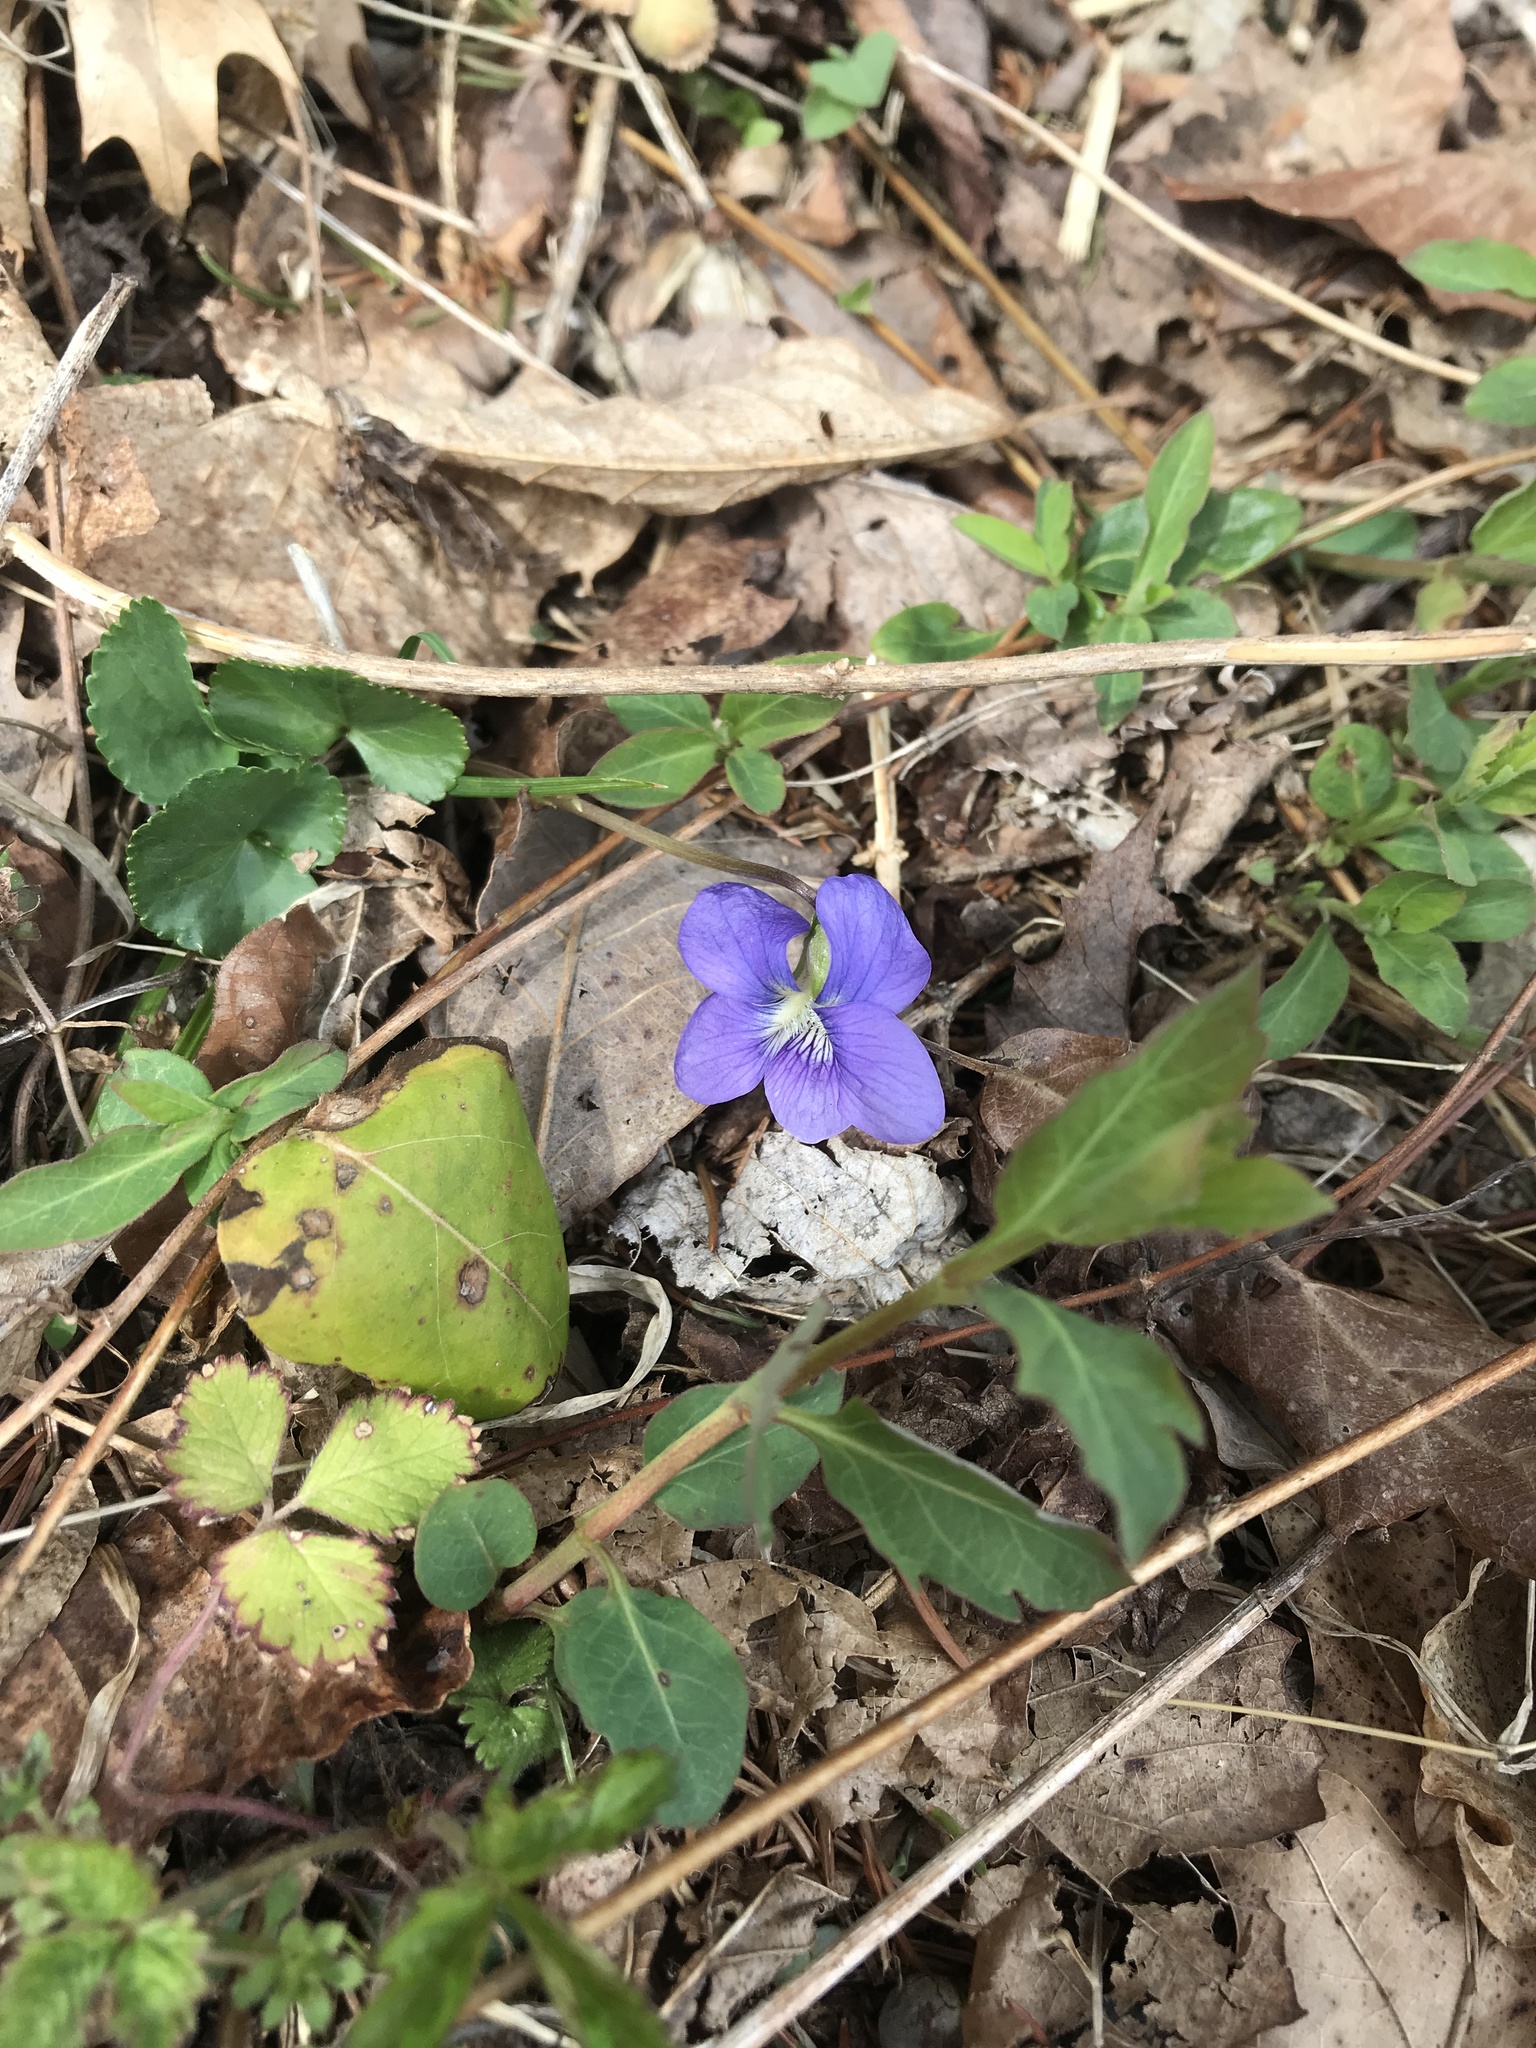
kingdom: Plantae
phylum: Tracheophyta
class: Magnoliopsida
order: Malpighiales
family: Violaceae
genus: Viola
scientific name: Viola sororia
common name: Dooryard violet
